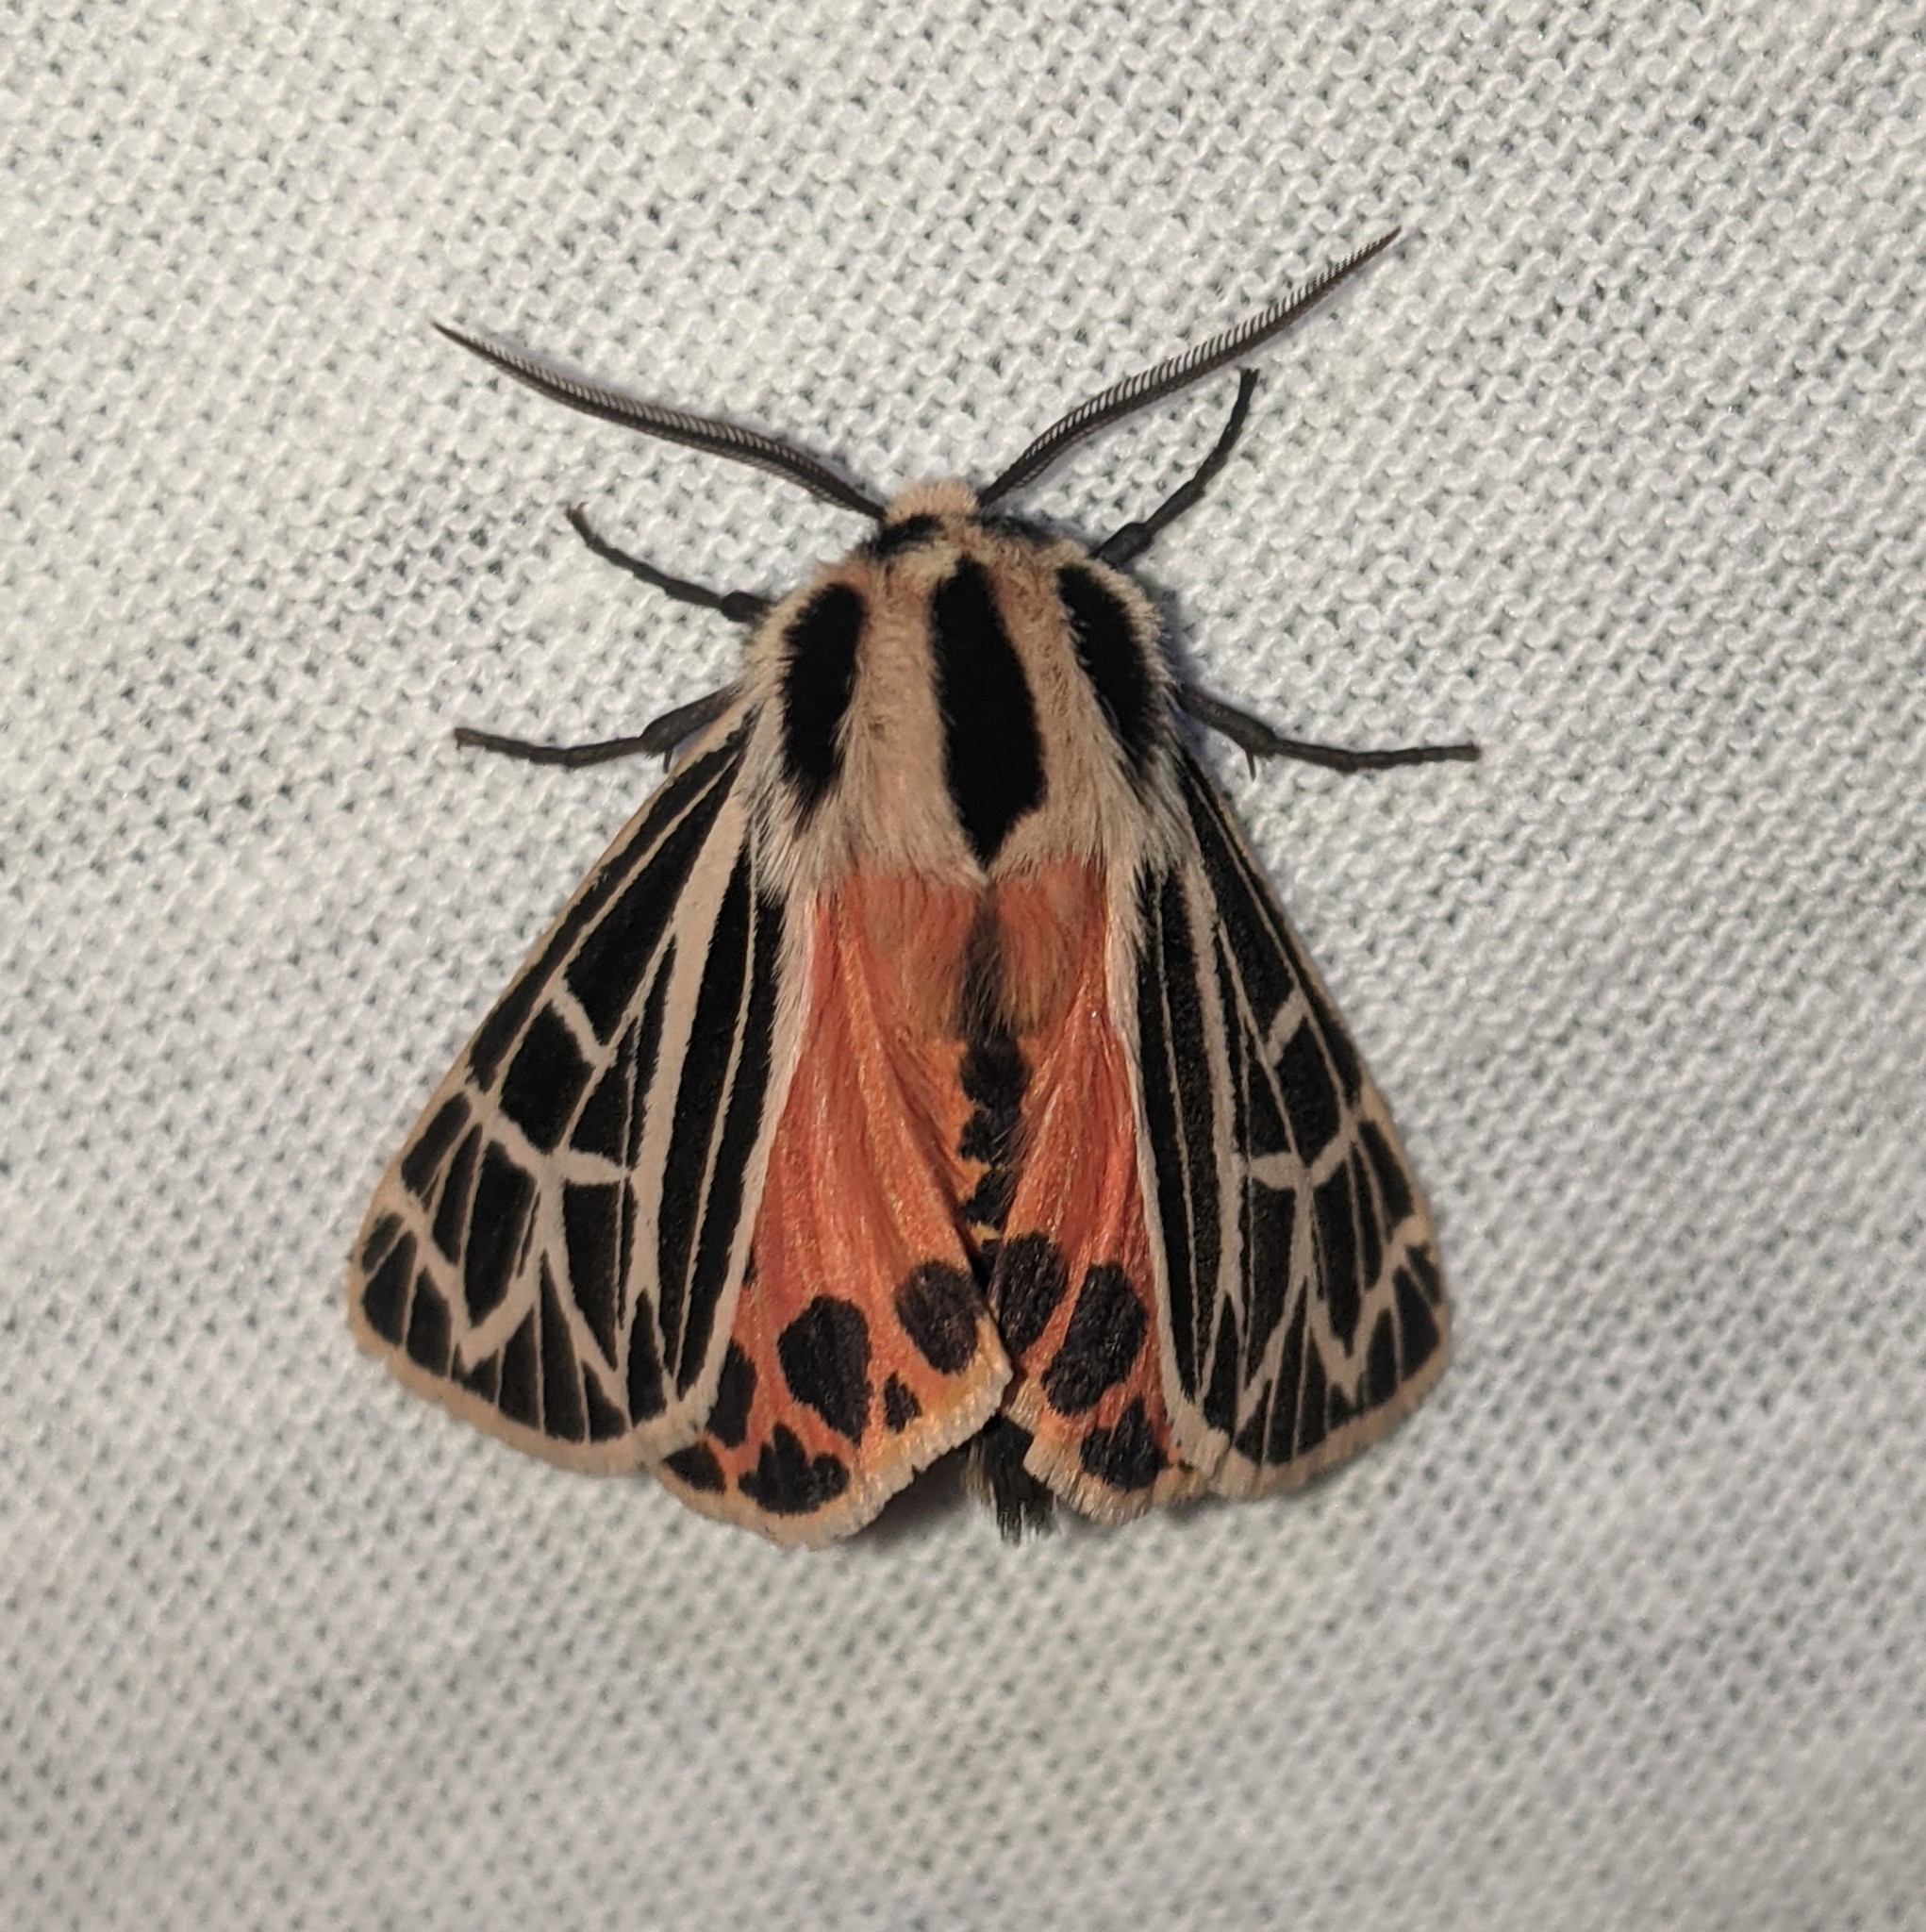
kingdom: Animalia
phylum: Arthropoda
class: Insecta
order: Lepidoptera
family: Erebidae
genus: Grammia
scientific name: Grammia parthenice
